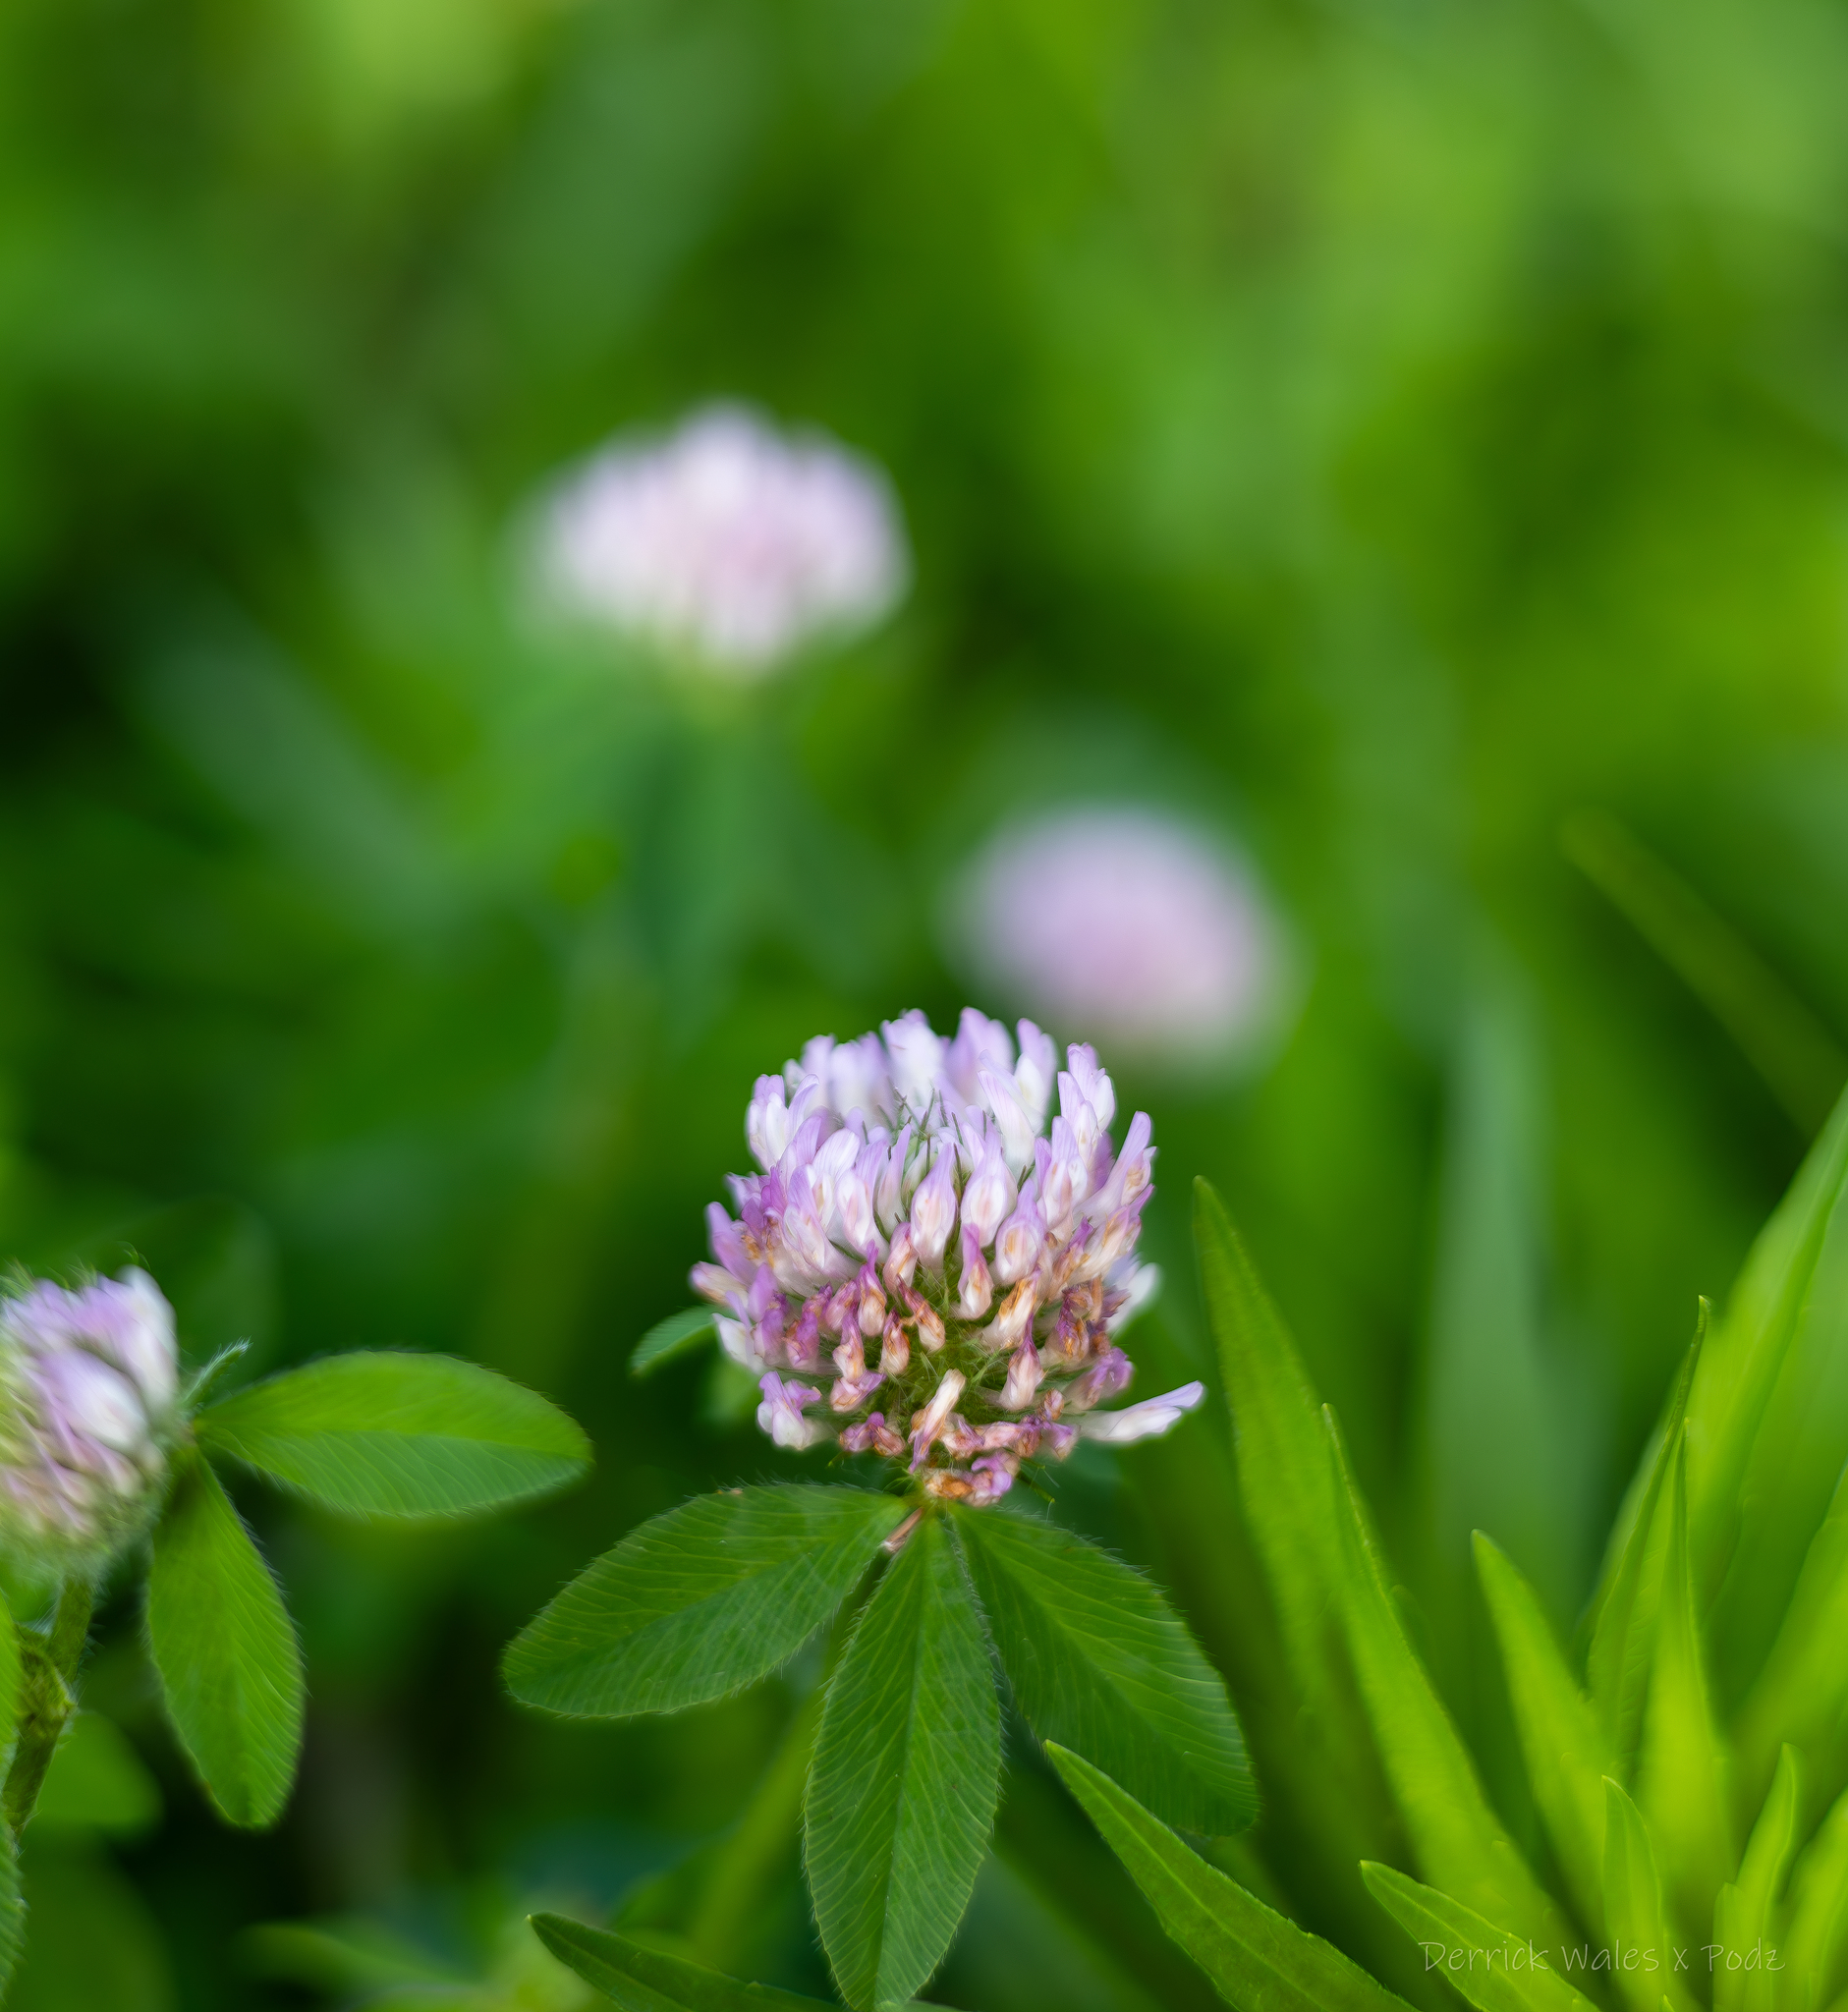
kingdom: Plantae
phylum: Tracheophyta
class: Magnoliopsida
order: Fabales
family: Fabaceae
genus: Trifolium
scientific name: Trifolium pratense
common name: Red clover
